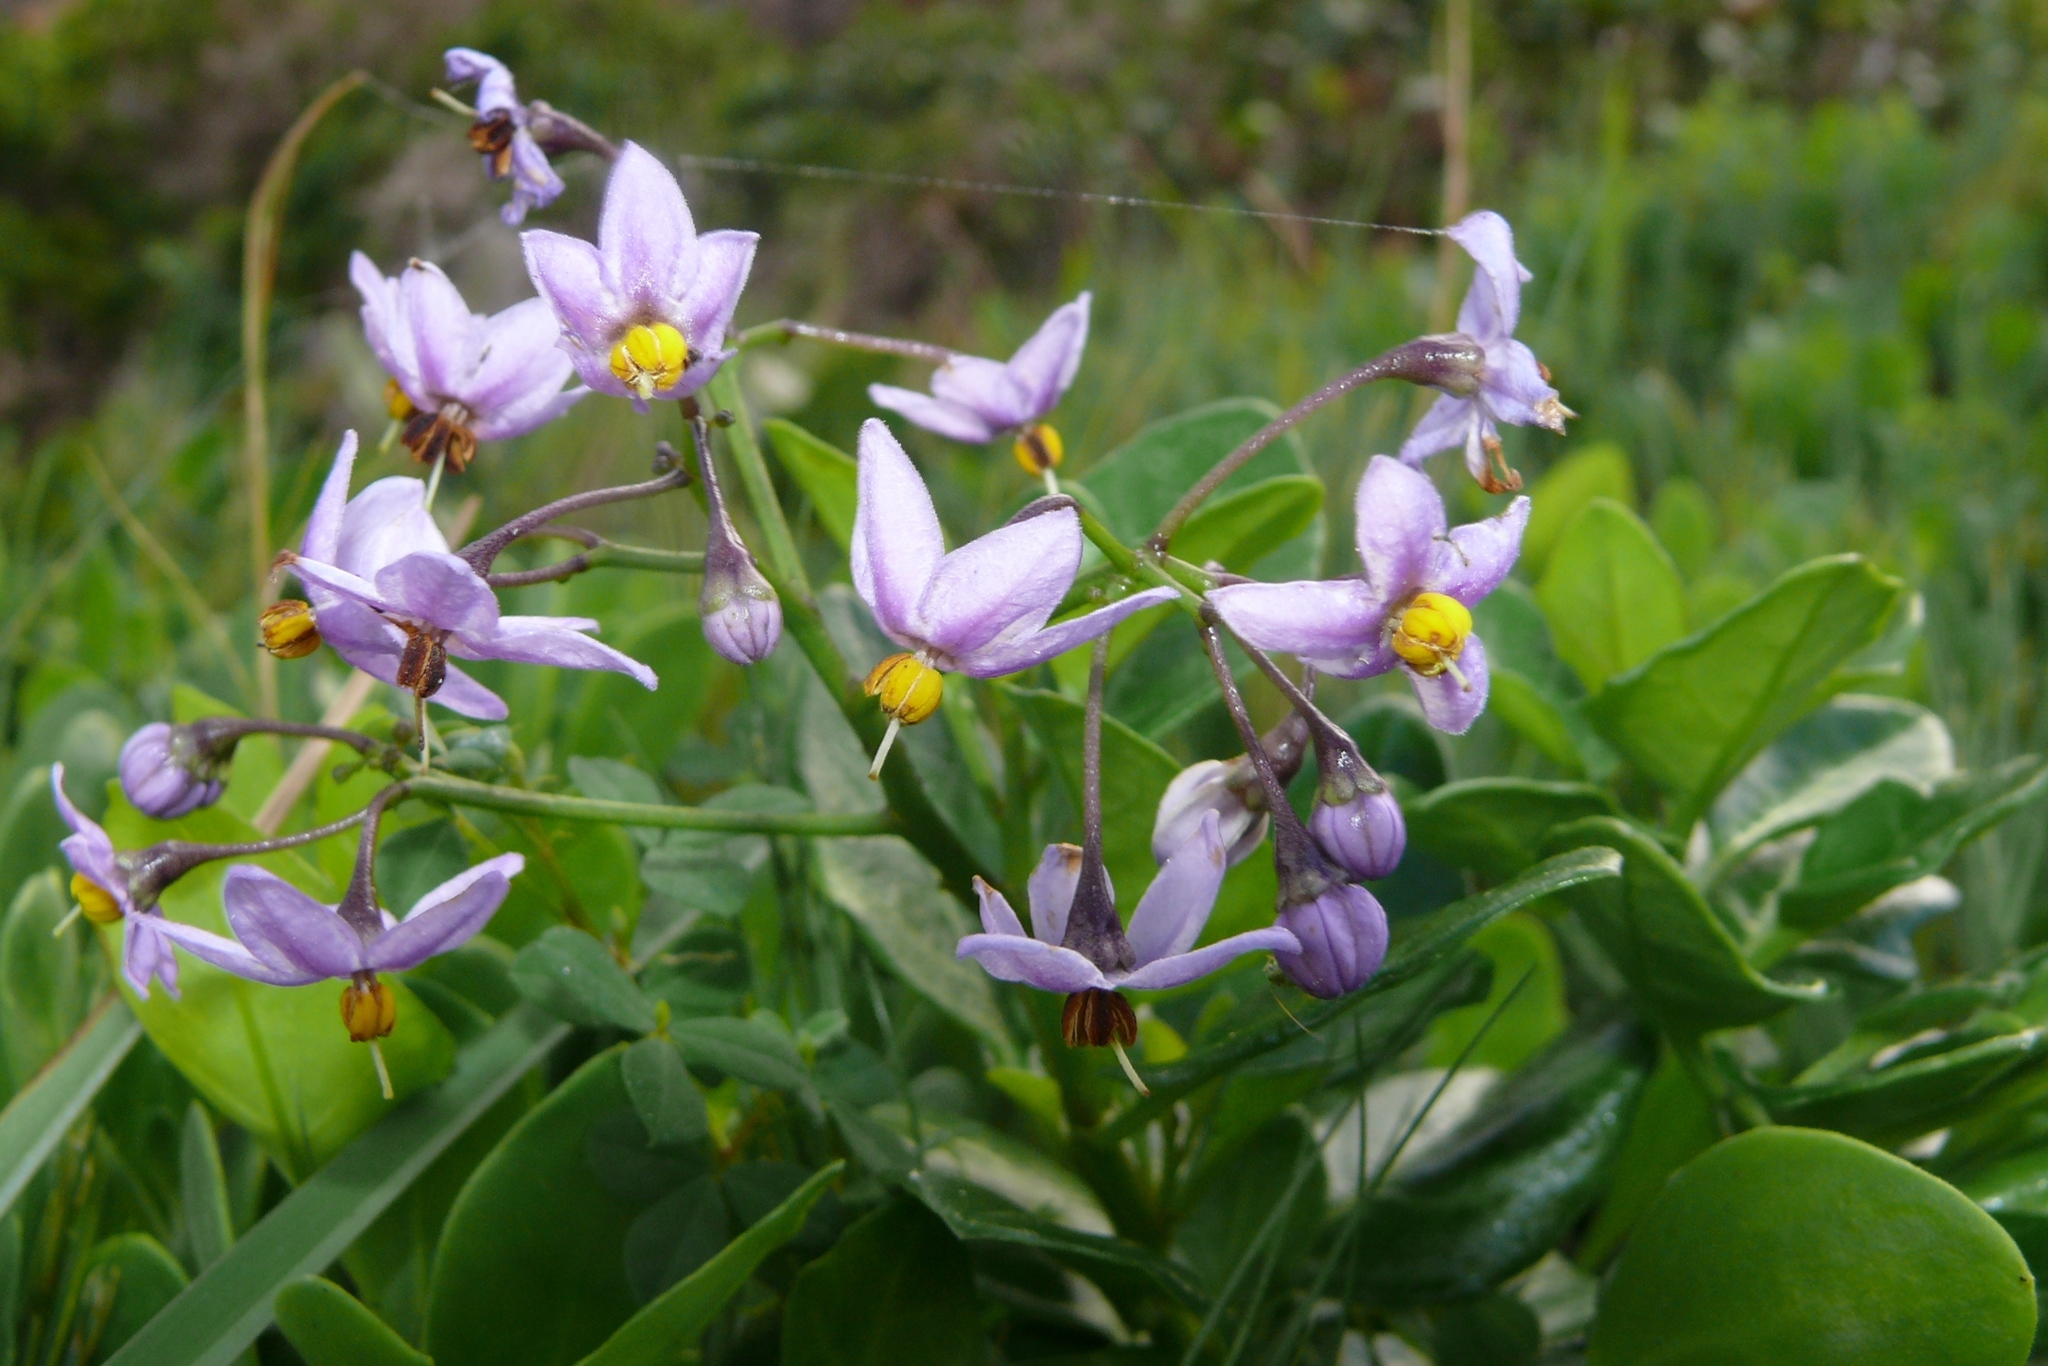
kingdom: Plantae
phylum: Tracheophyta
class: Magnoliopsida
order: Solanales
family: Solanaceae
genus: Solanum
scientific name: Solanum africanum
